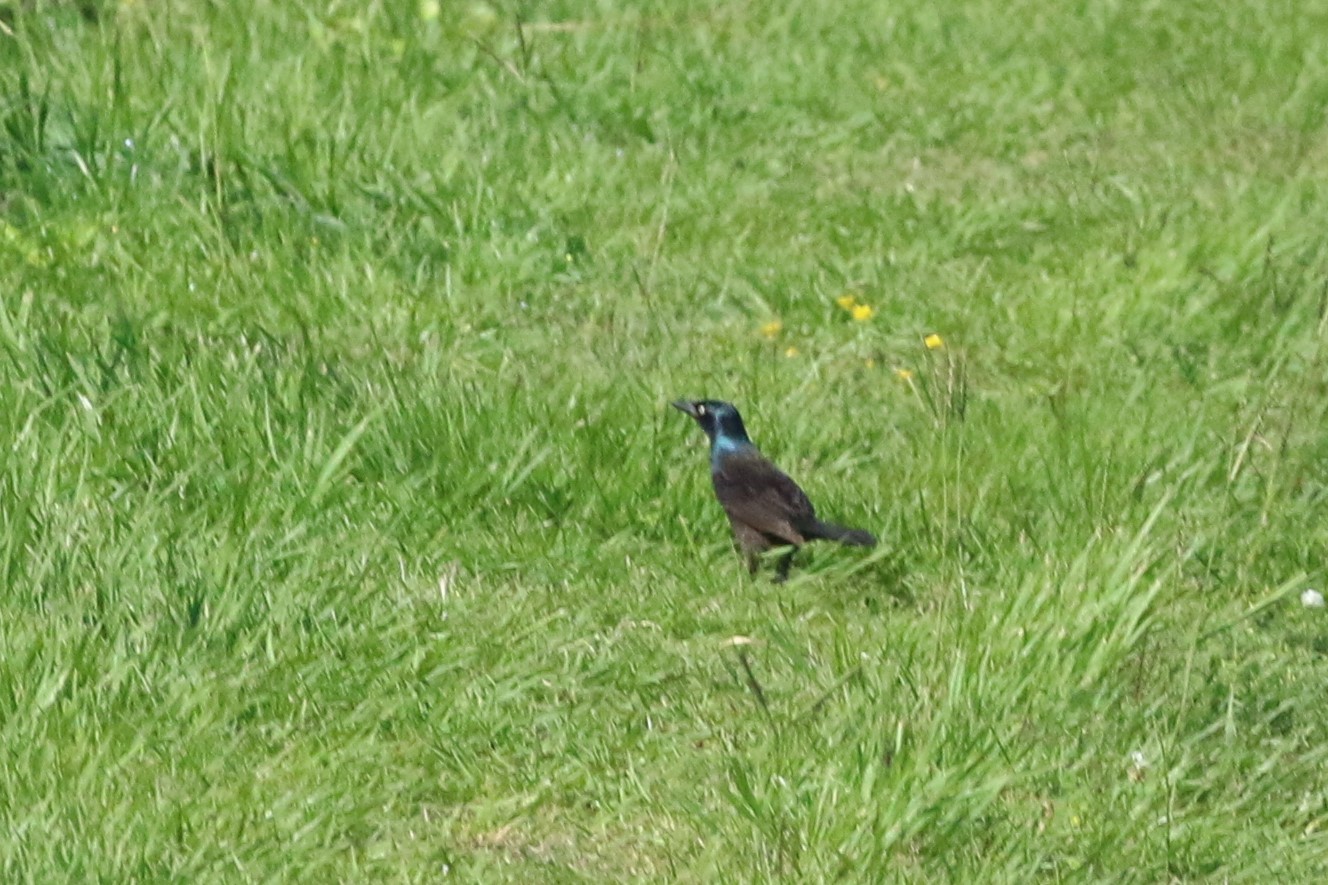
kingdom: Animalia
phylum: Chordata
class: Aves
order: Passeriformes
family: Icteridae
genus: Quiscalus
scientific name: Quiscalus quiscula
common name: Common grackle
